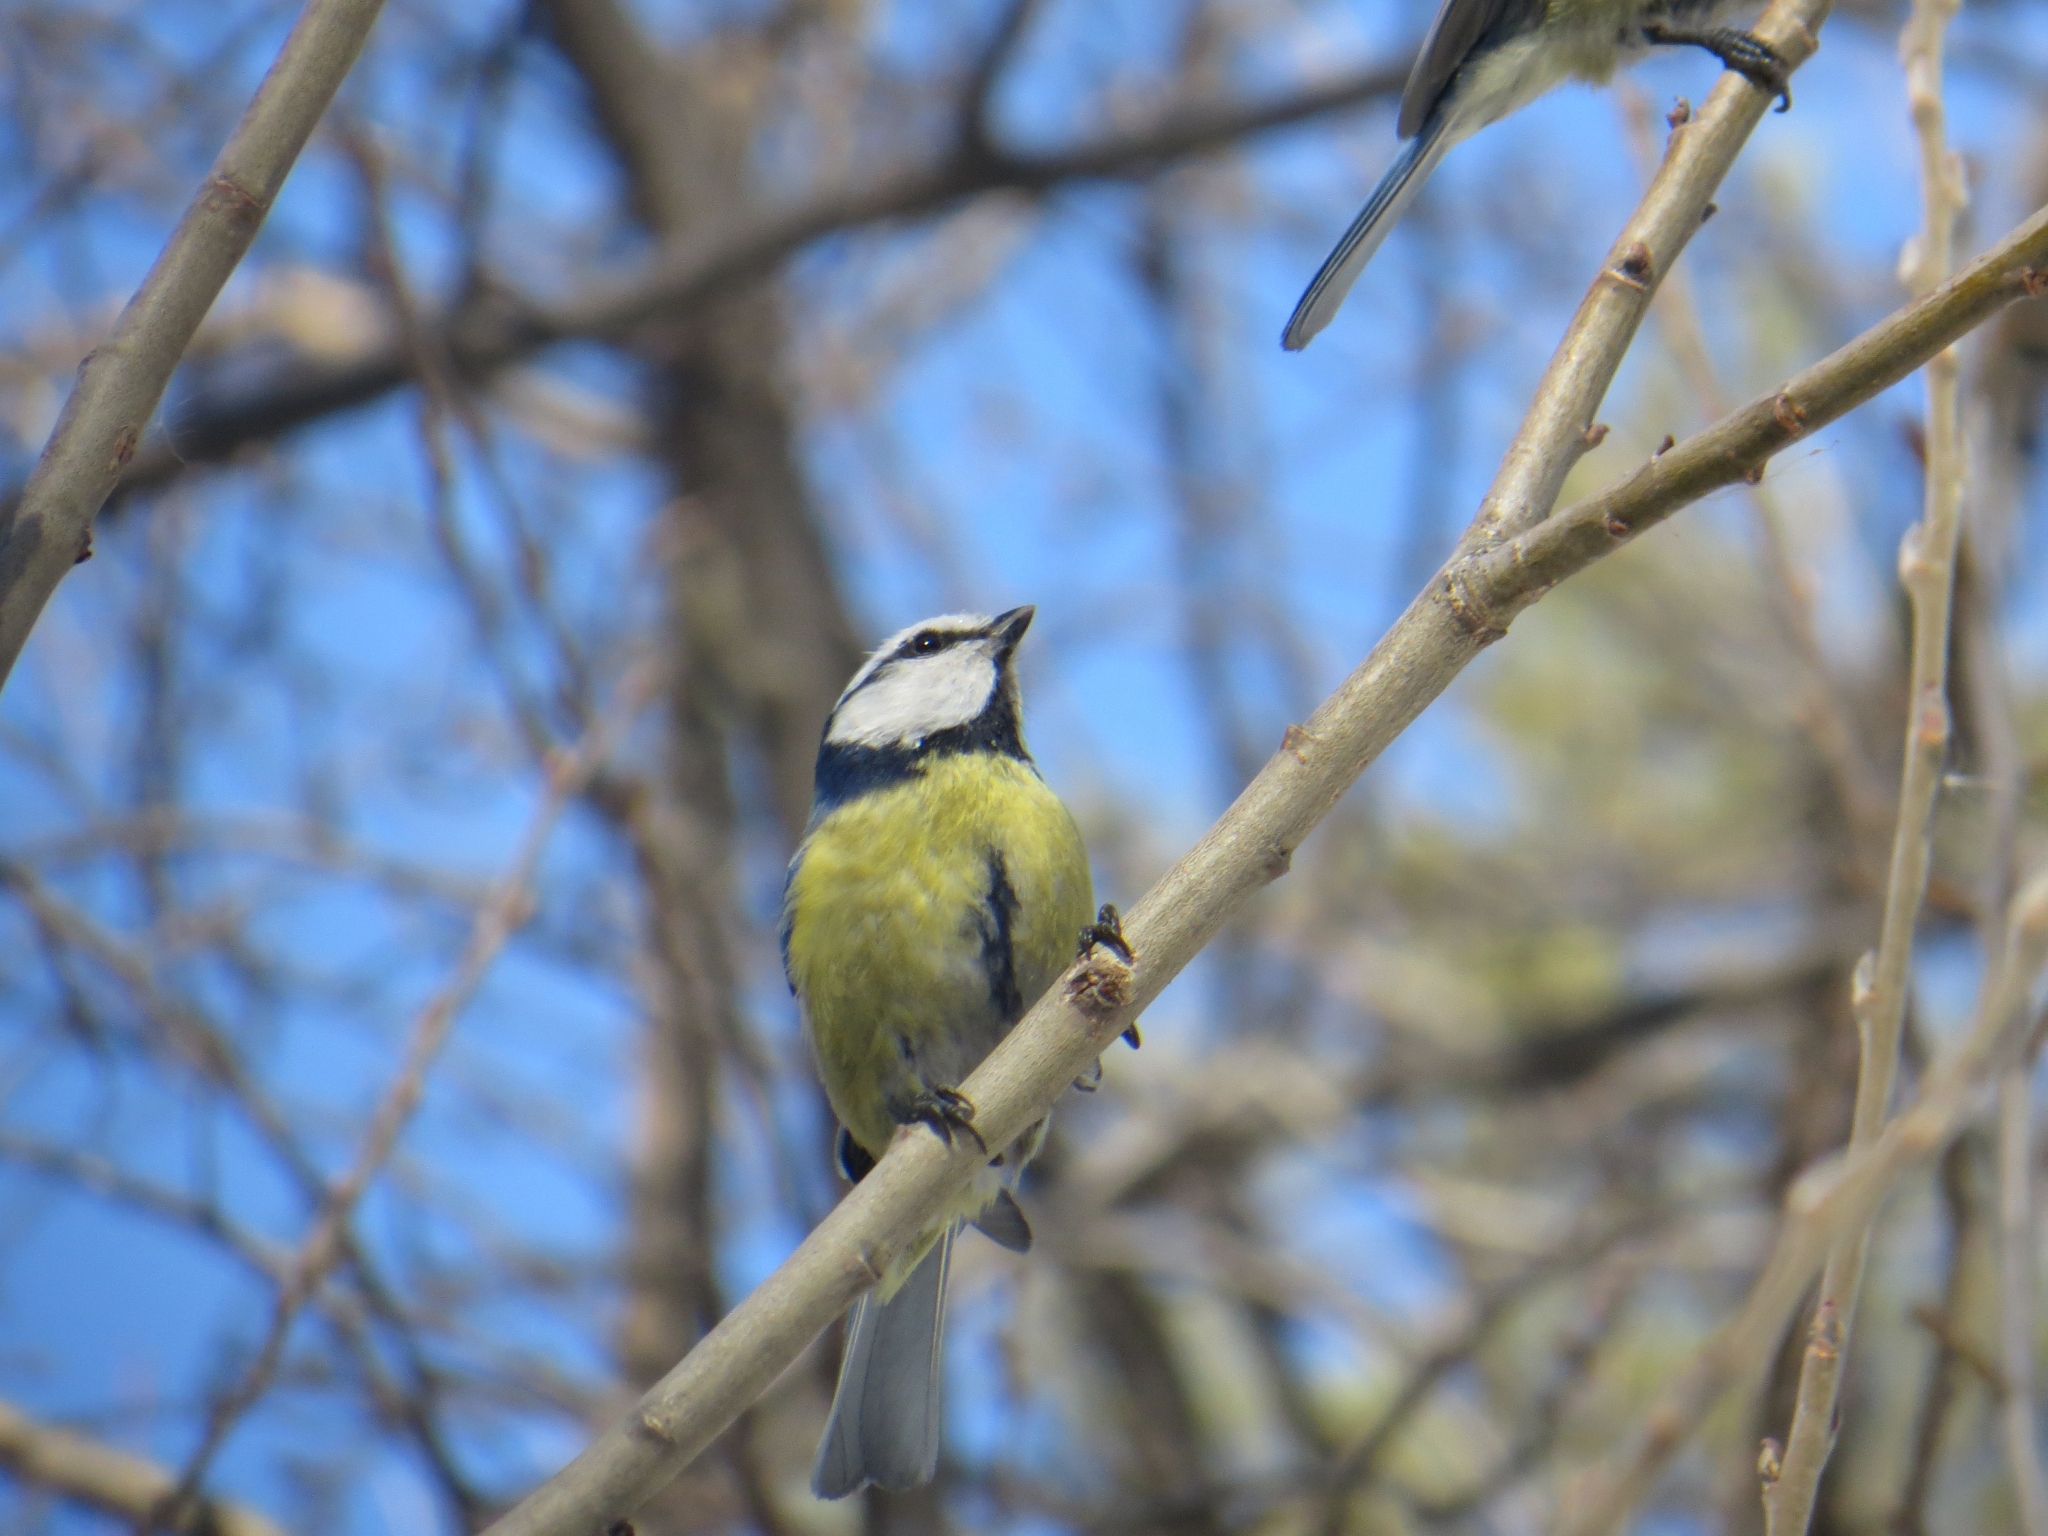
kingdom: Animalia
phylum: Chordata
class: Aves
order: Passeriformes
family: Paridae
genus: Cyanistes
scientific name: Cyanistes caeruleus
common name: Eurasian blue tit
